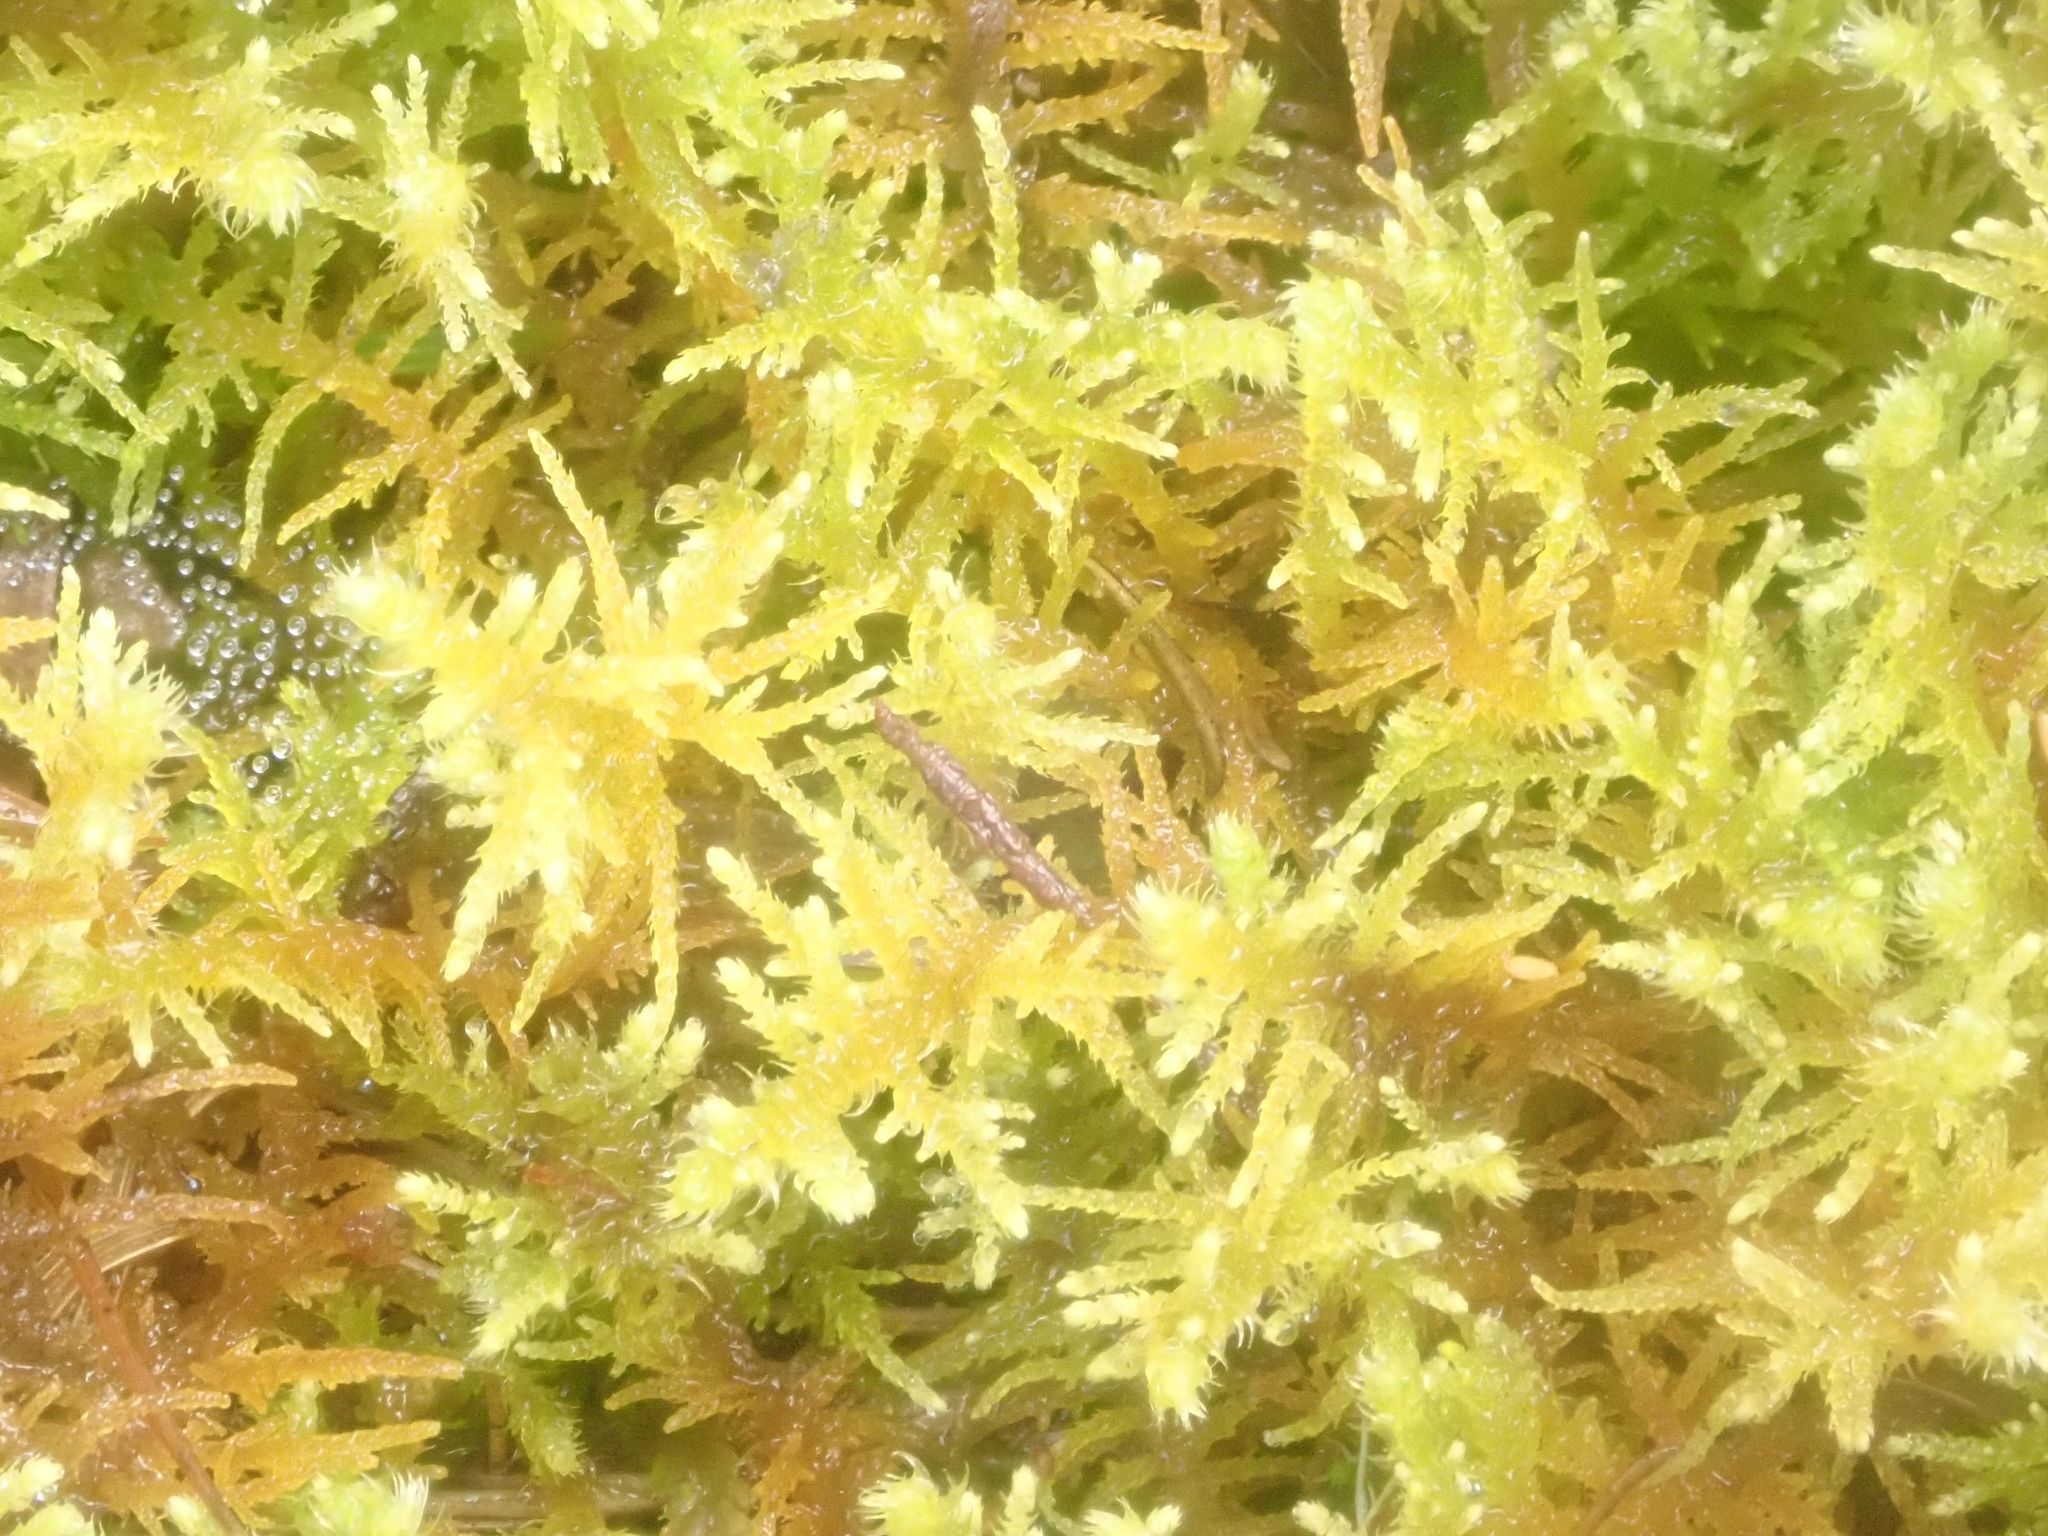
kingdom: Plantae
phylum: Bryophyta
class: Bryopsida
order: Hypnales
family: Thuidiaceae
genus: Thuidiopsis
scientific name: Thuidiopsis furfurosa
